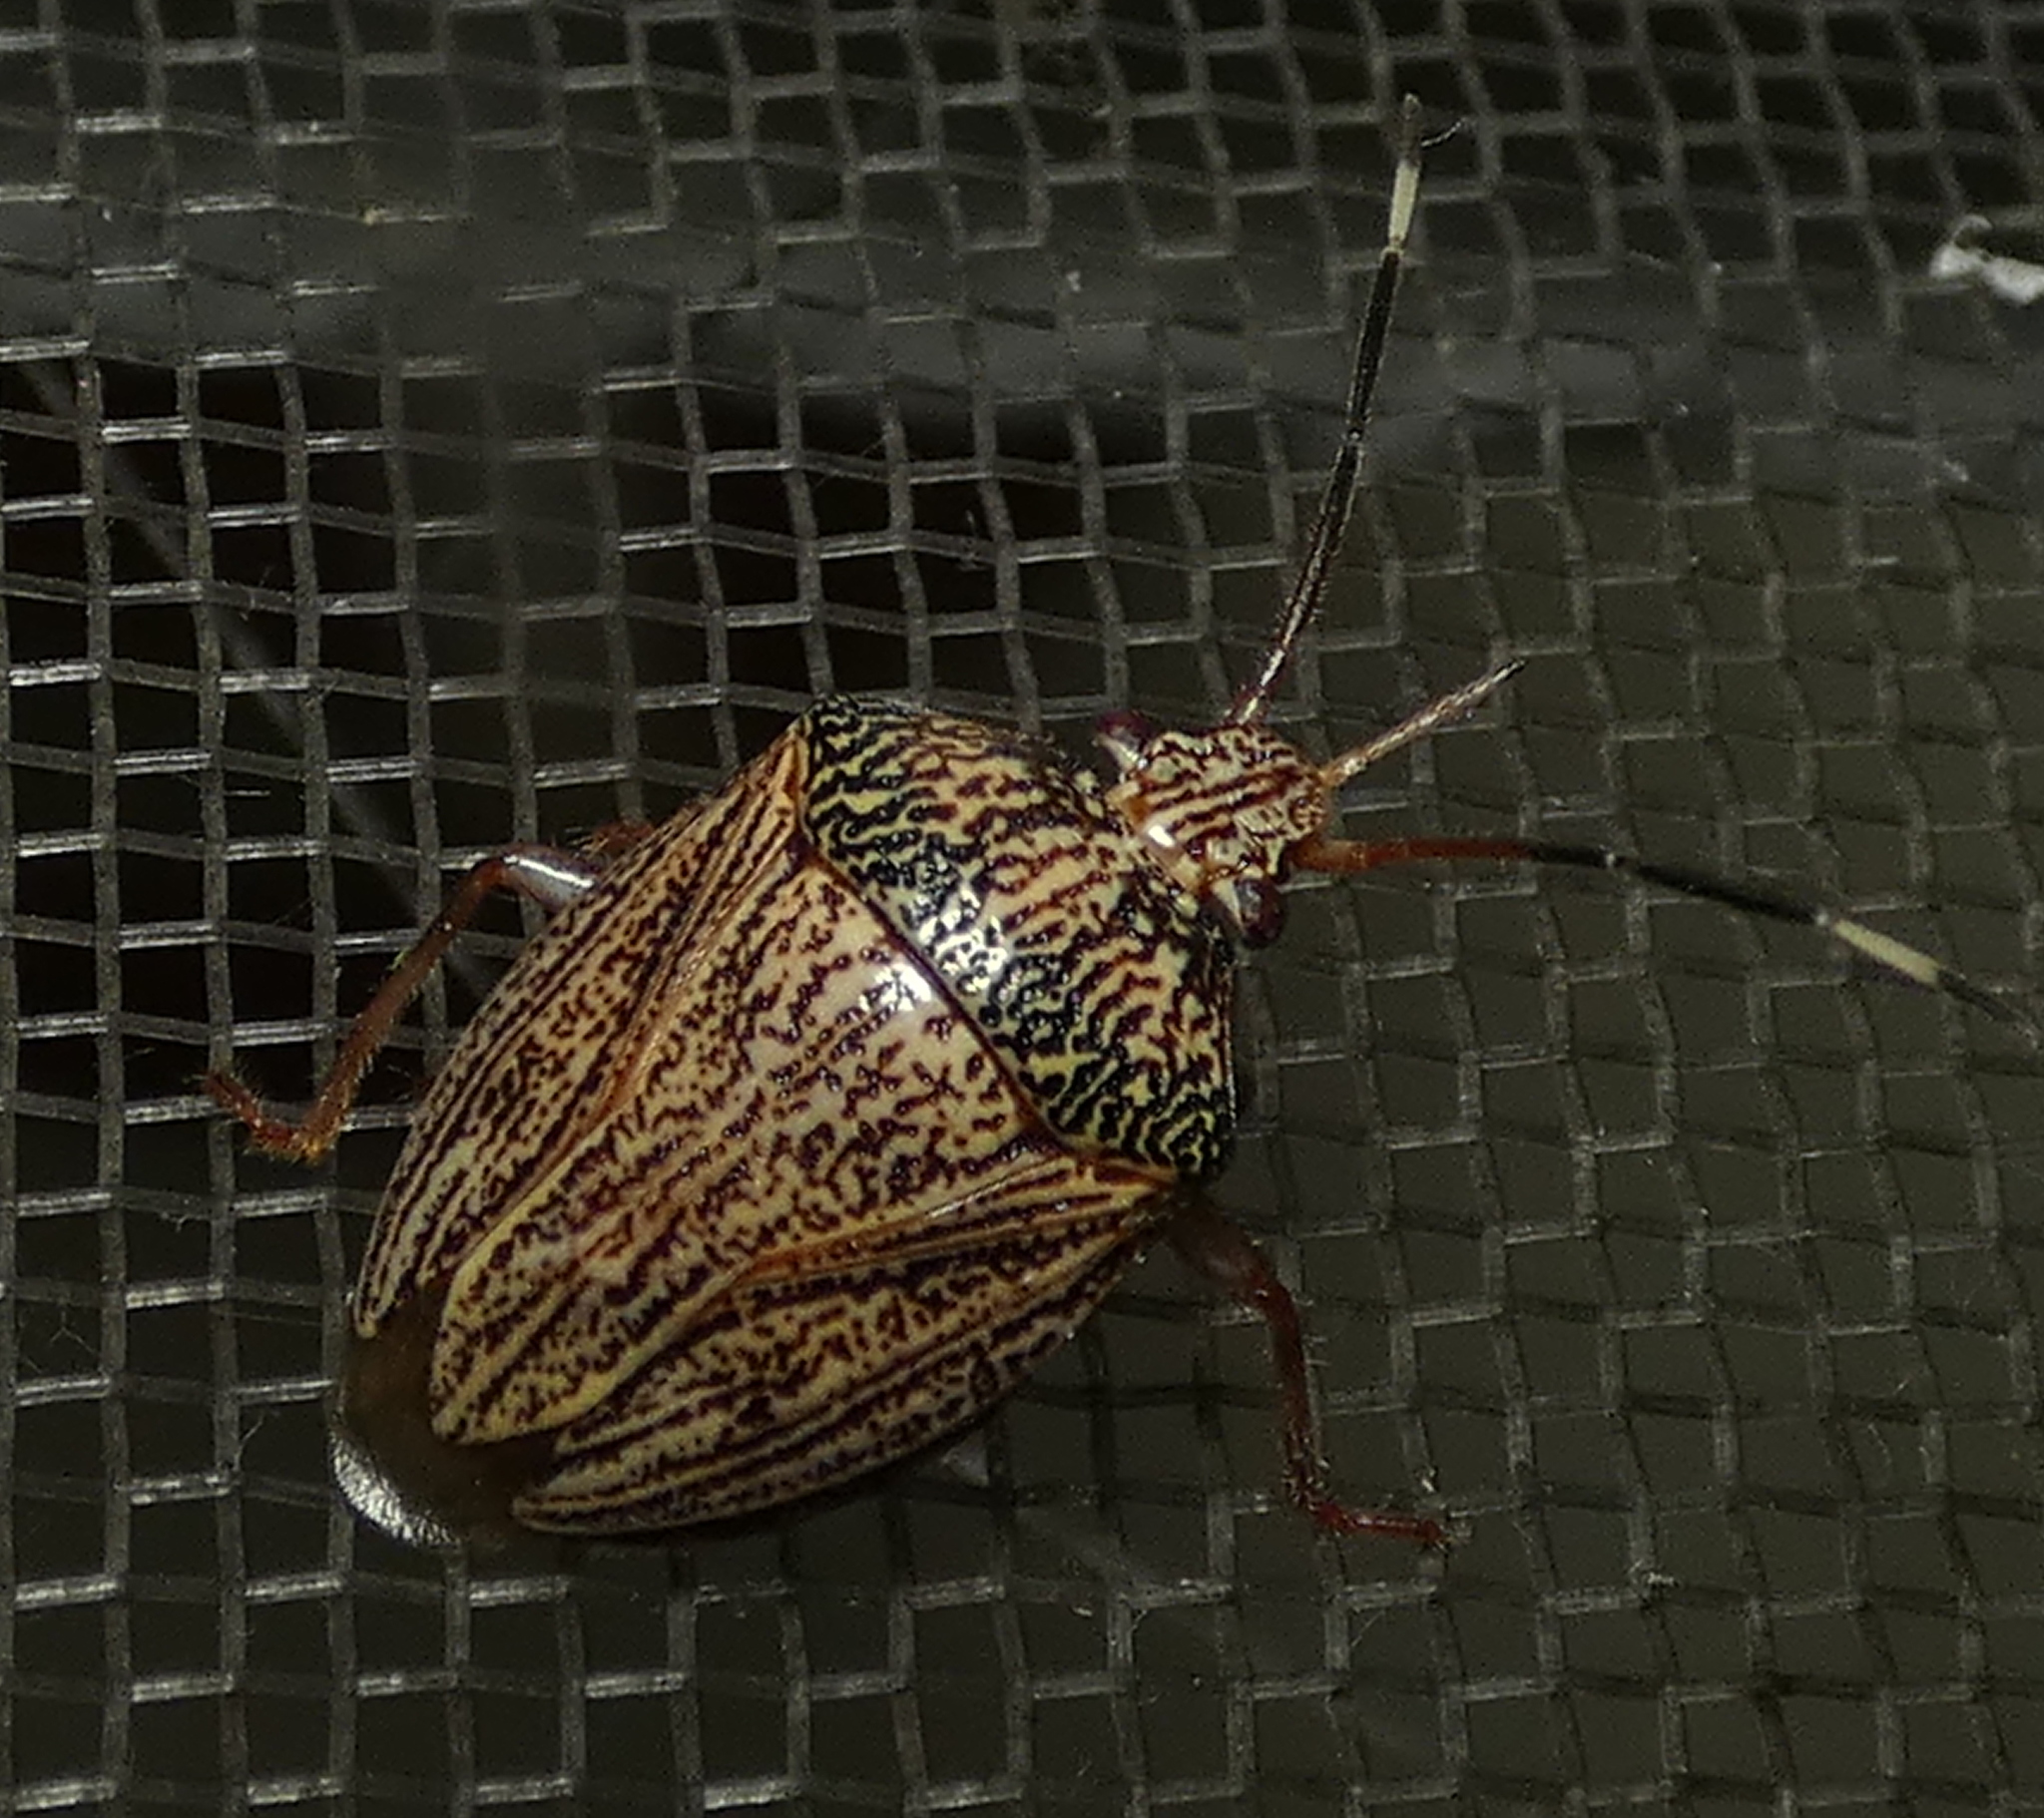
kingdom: Animalia
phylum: Arthropoda
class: Insecta
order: Hemiptera
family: Pentatomidae
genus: Antiteuchus
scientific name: Antiteuchus macraspis
